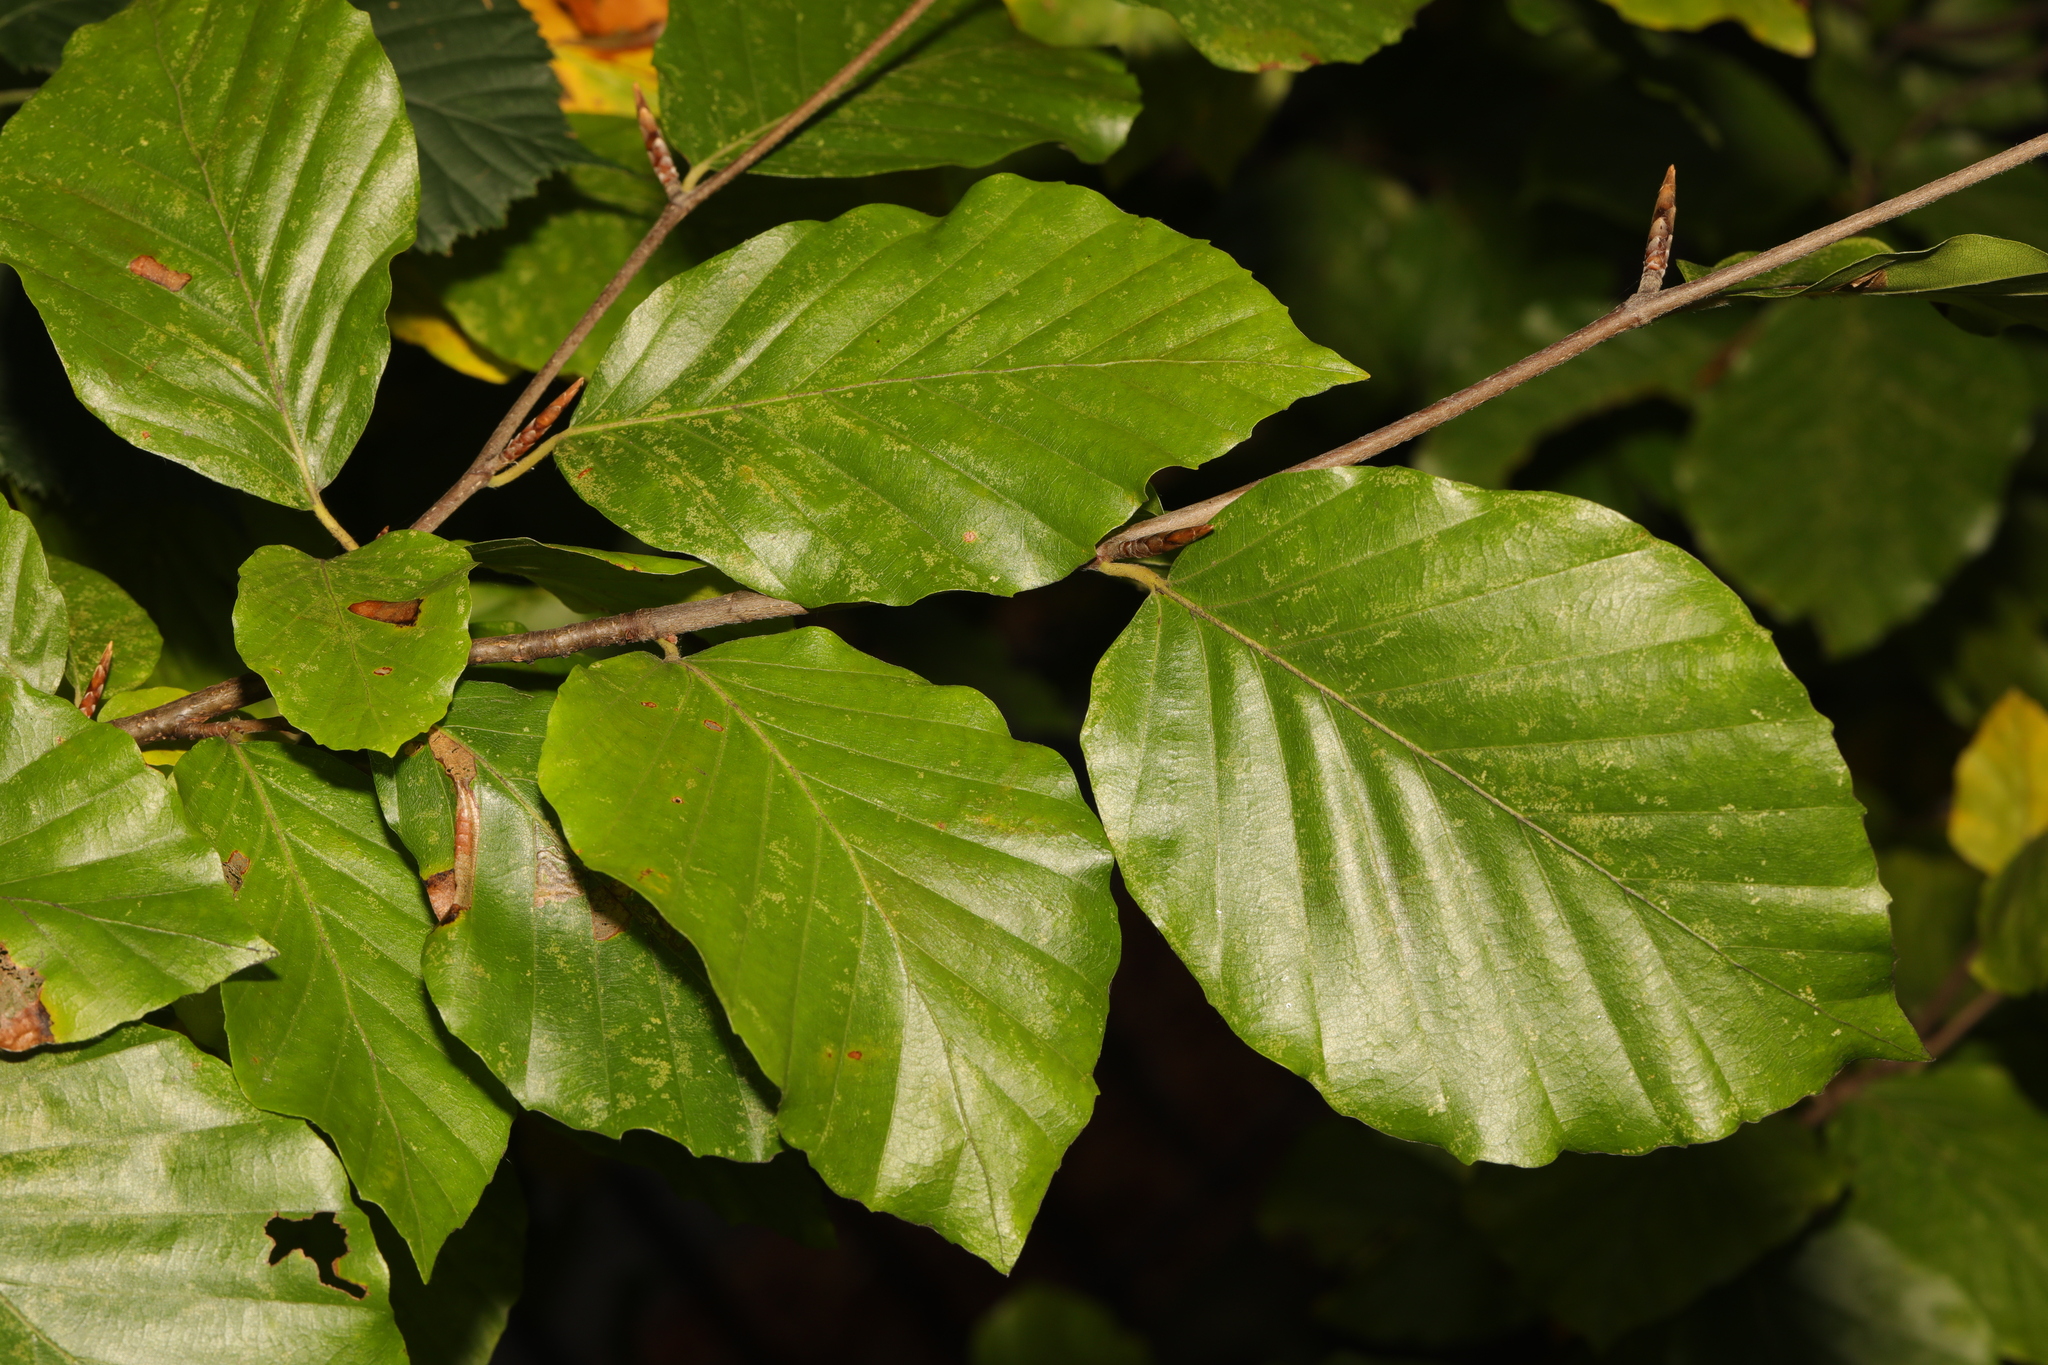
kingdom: Plantae
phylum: Tracheophyta
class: Magnoliopsida
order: Fagales
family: Fagaceae
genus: Fagus
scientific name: Fagus sylvatica
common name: Beech
